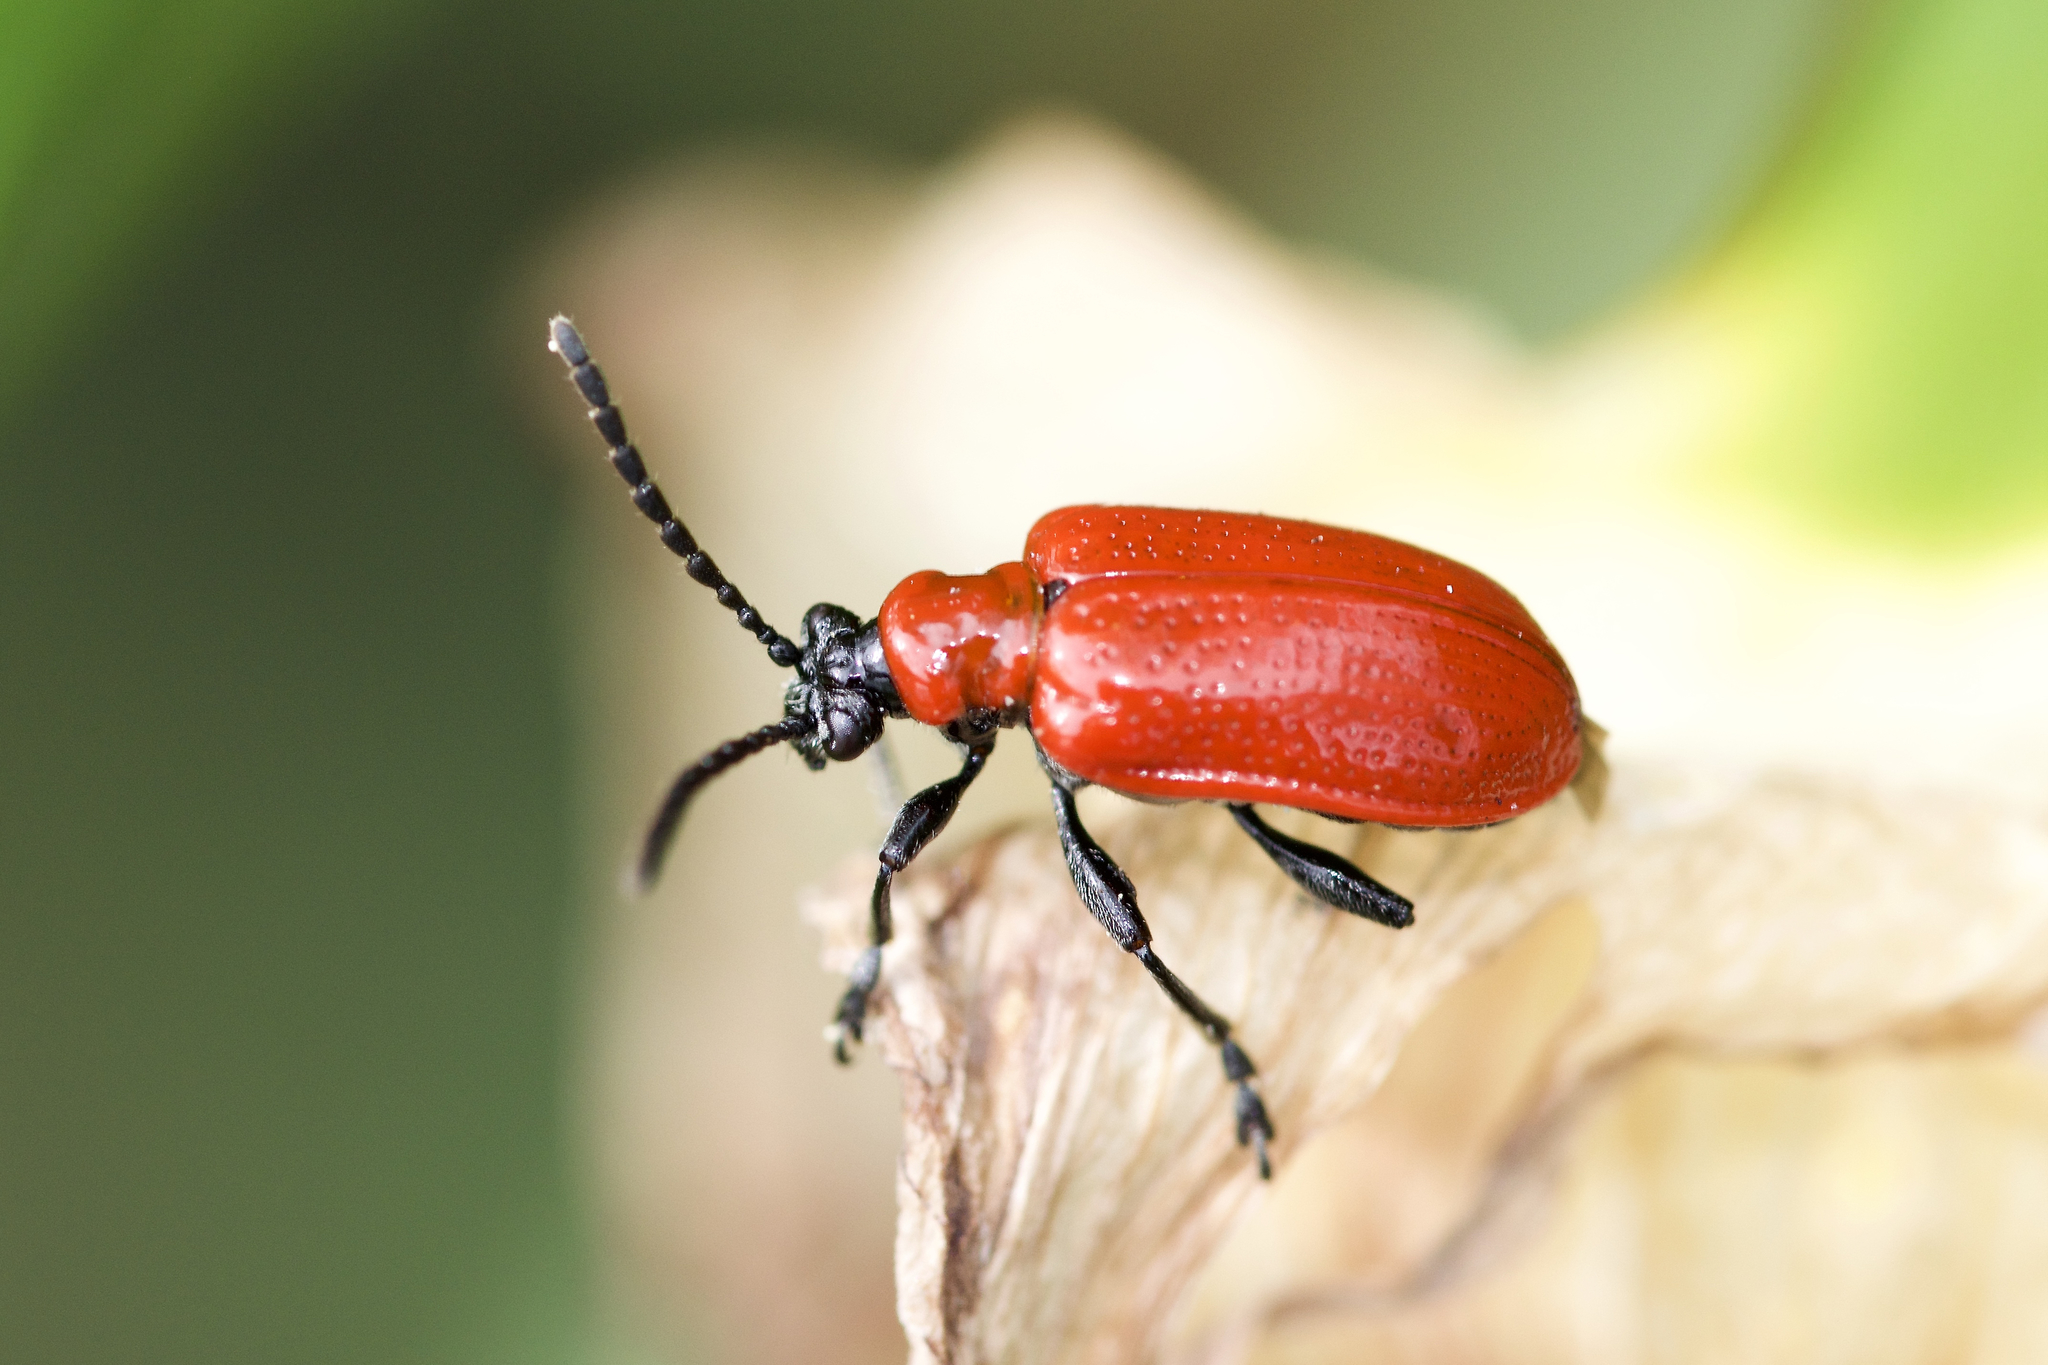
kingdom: Animalia
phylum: Arthropoda
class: Insecta
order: Coleoptera
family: Chrysomelidae
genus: Lilioceris
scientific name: Lilioceris lilii
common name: Lily beetle
